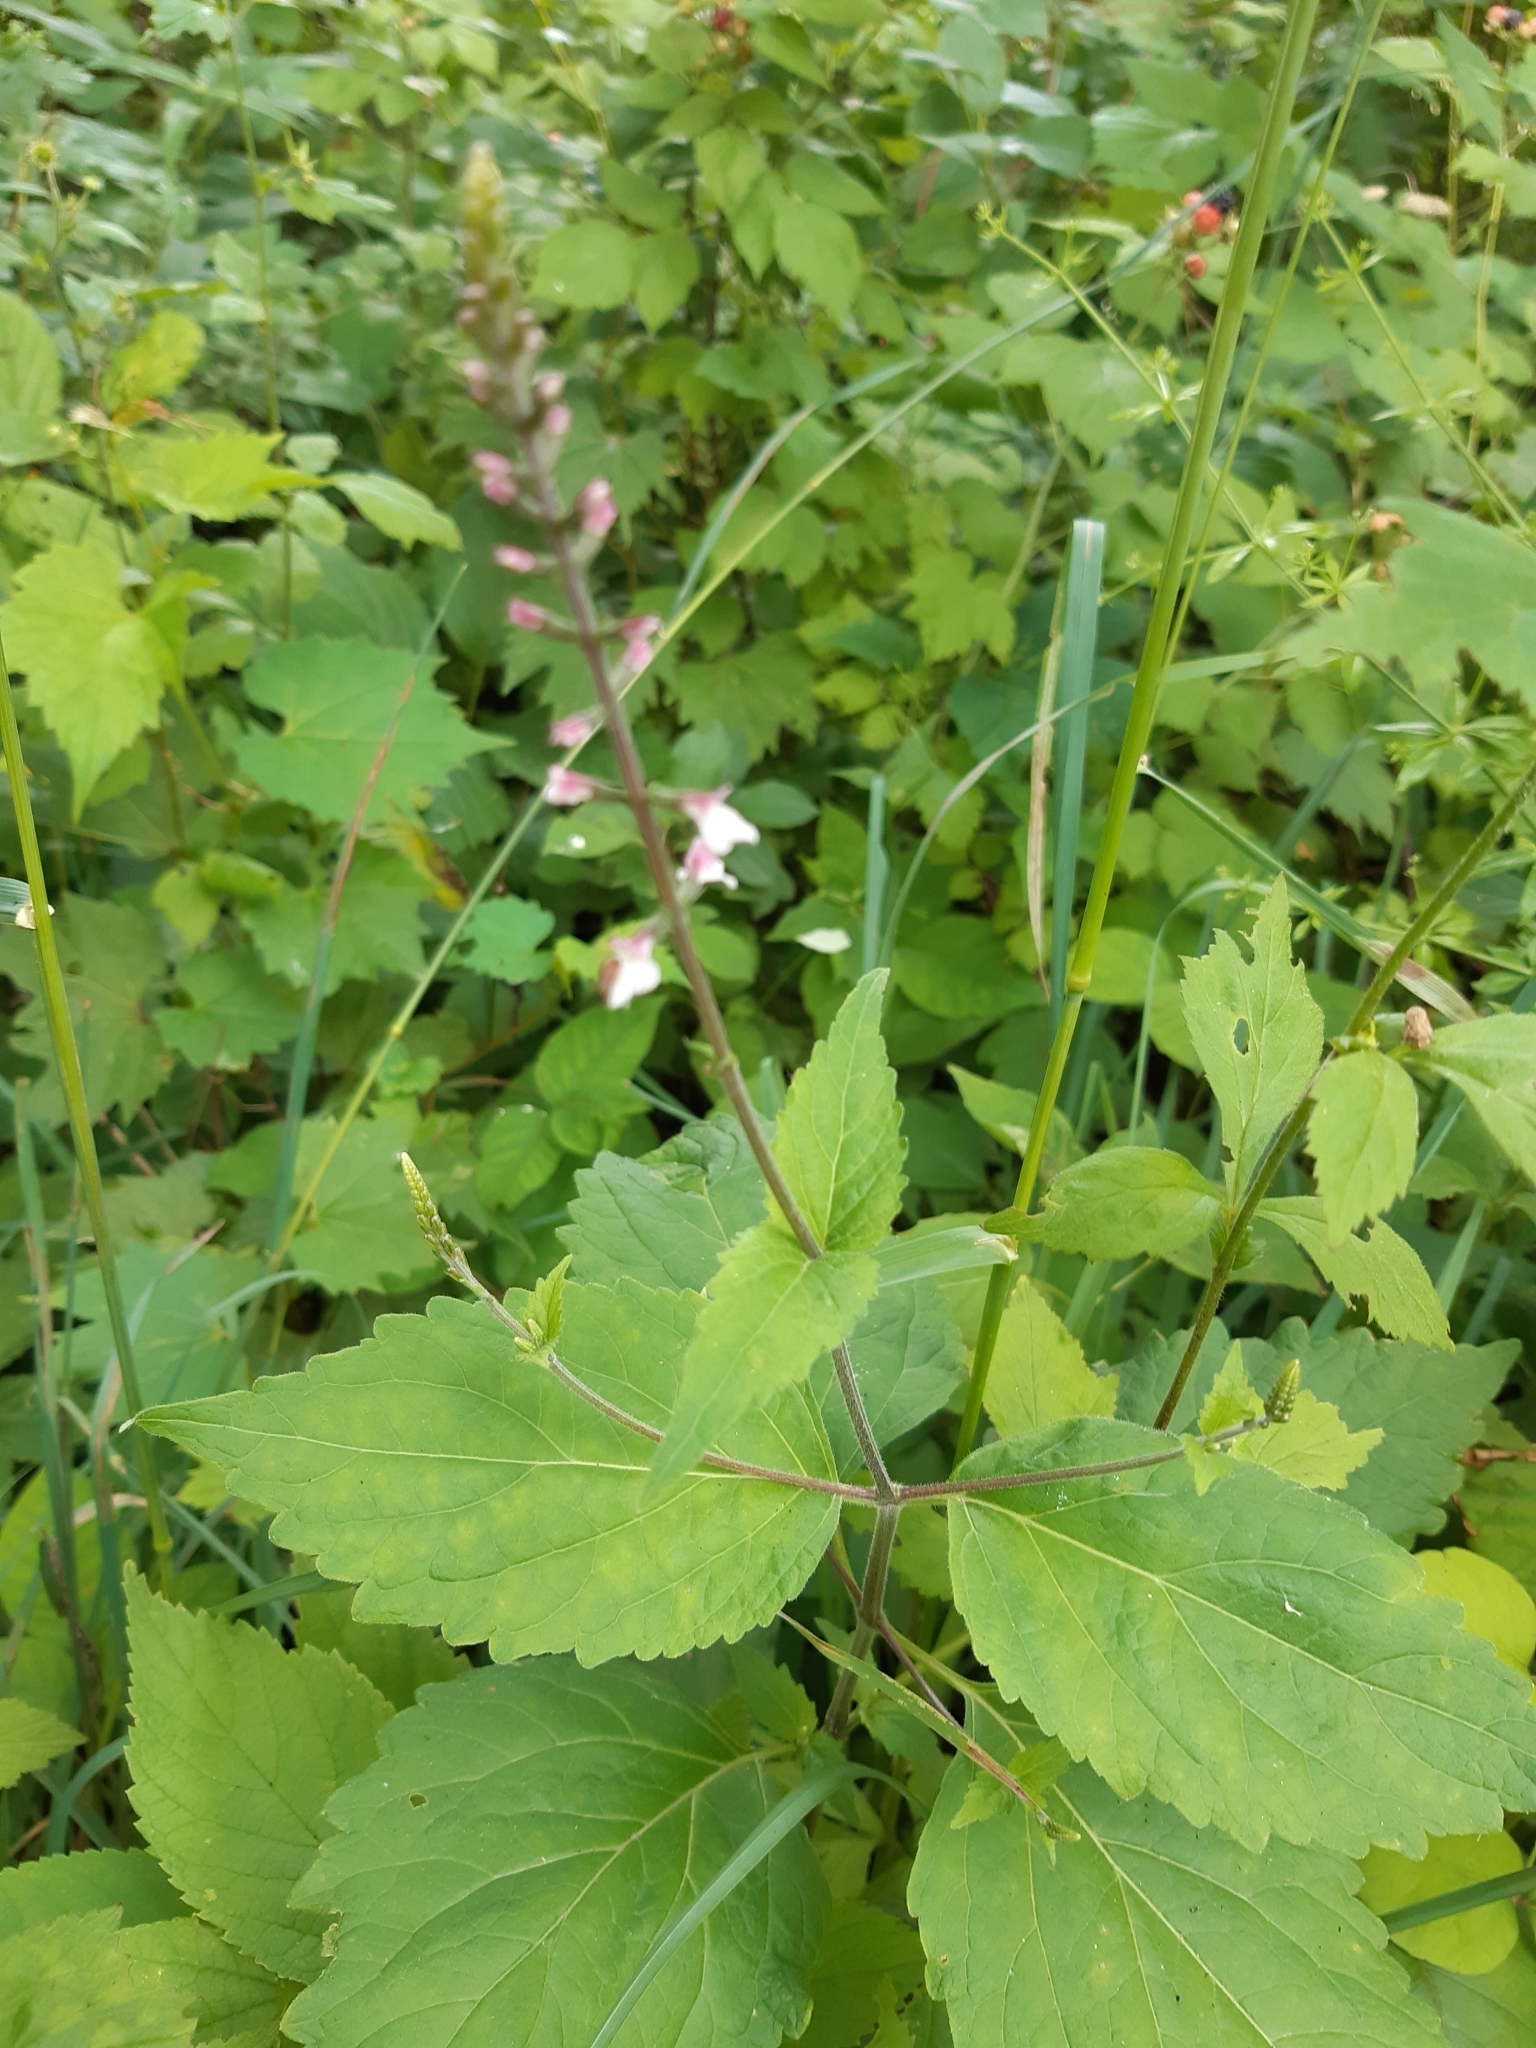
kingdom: Plantae
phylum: Tracheophyta
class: Magnoliopsida
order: Lamiales
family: Phrymaceae
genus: Phryma
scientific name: Phryma leptostachya
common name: American lopseed
